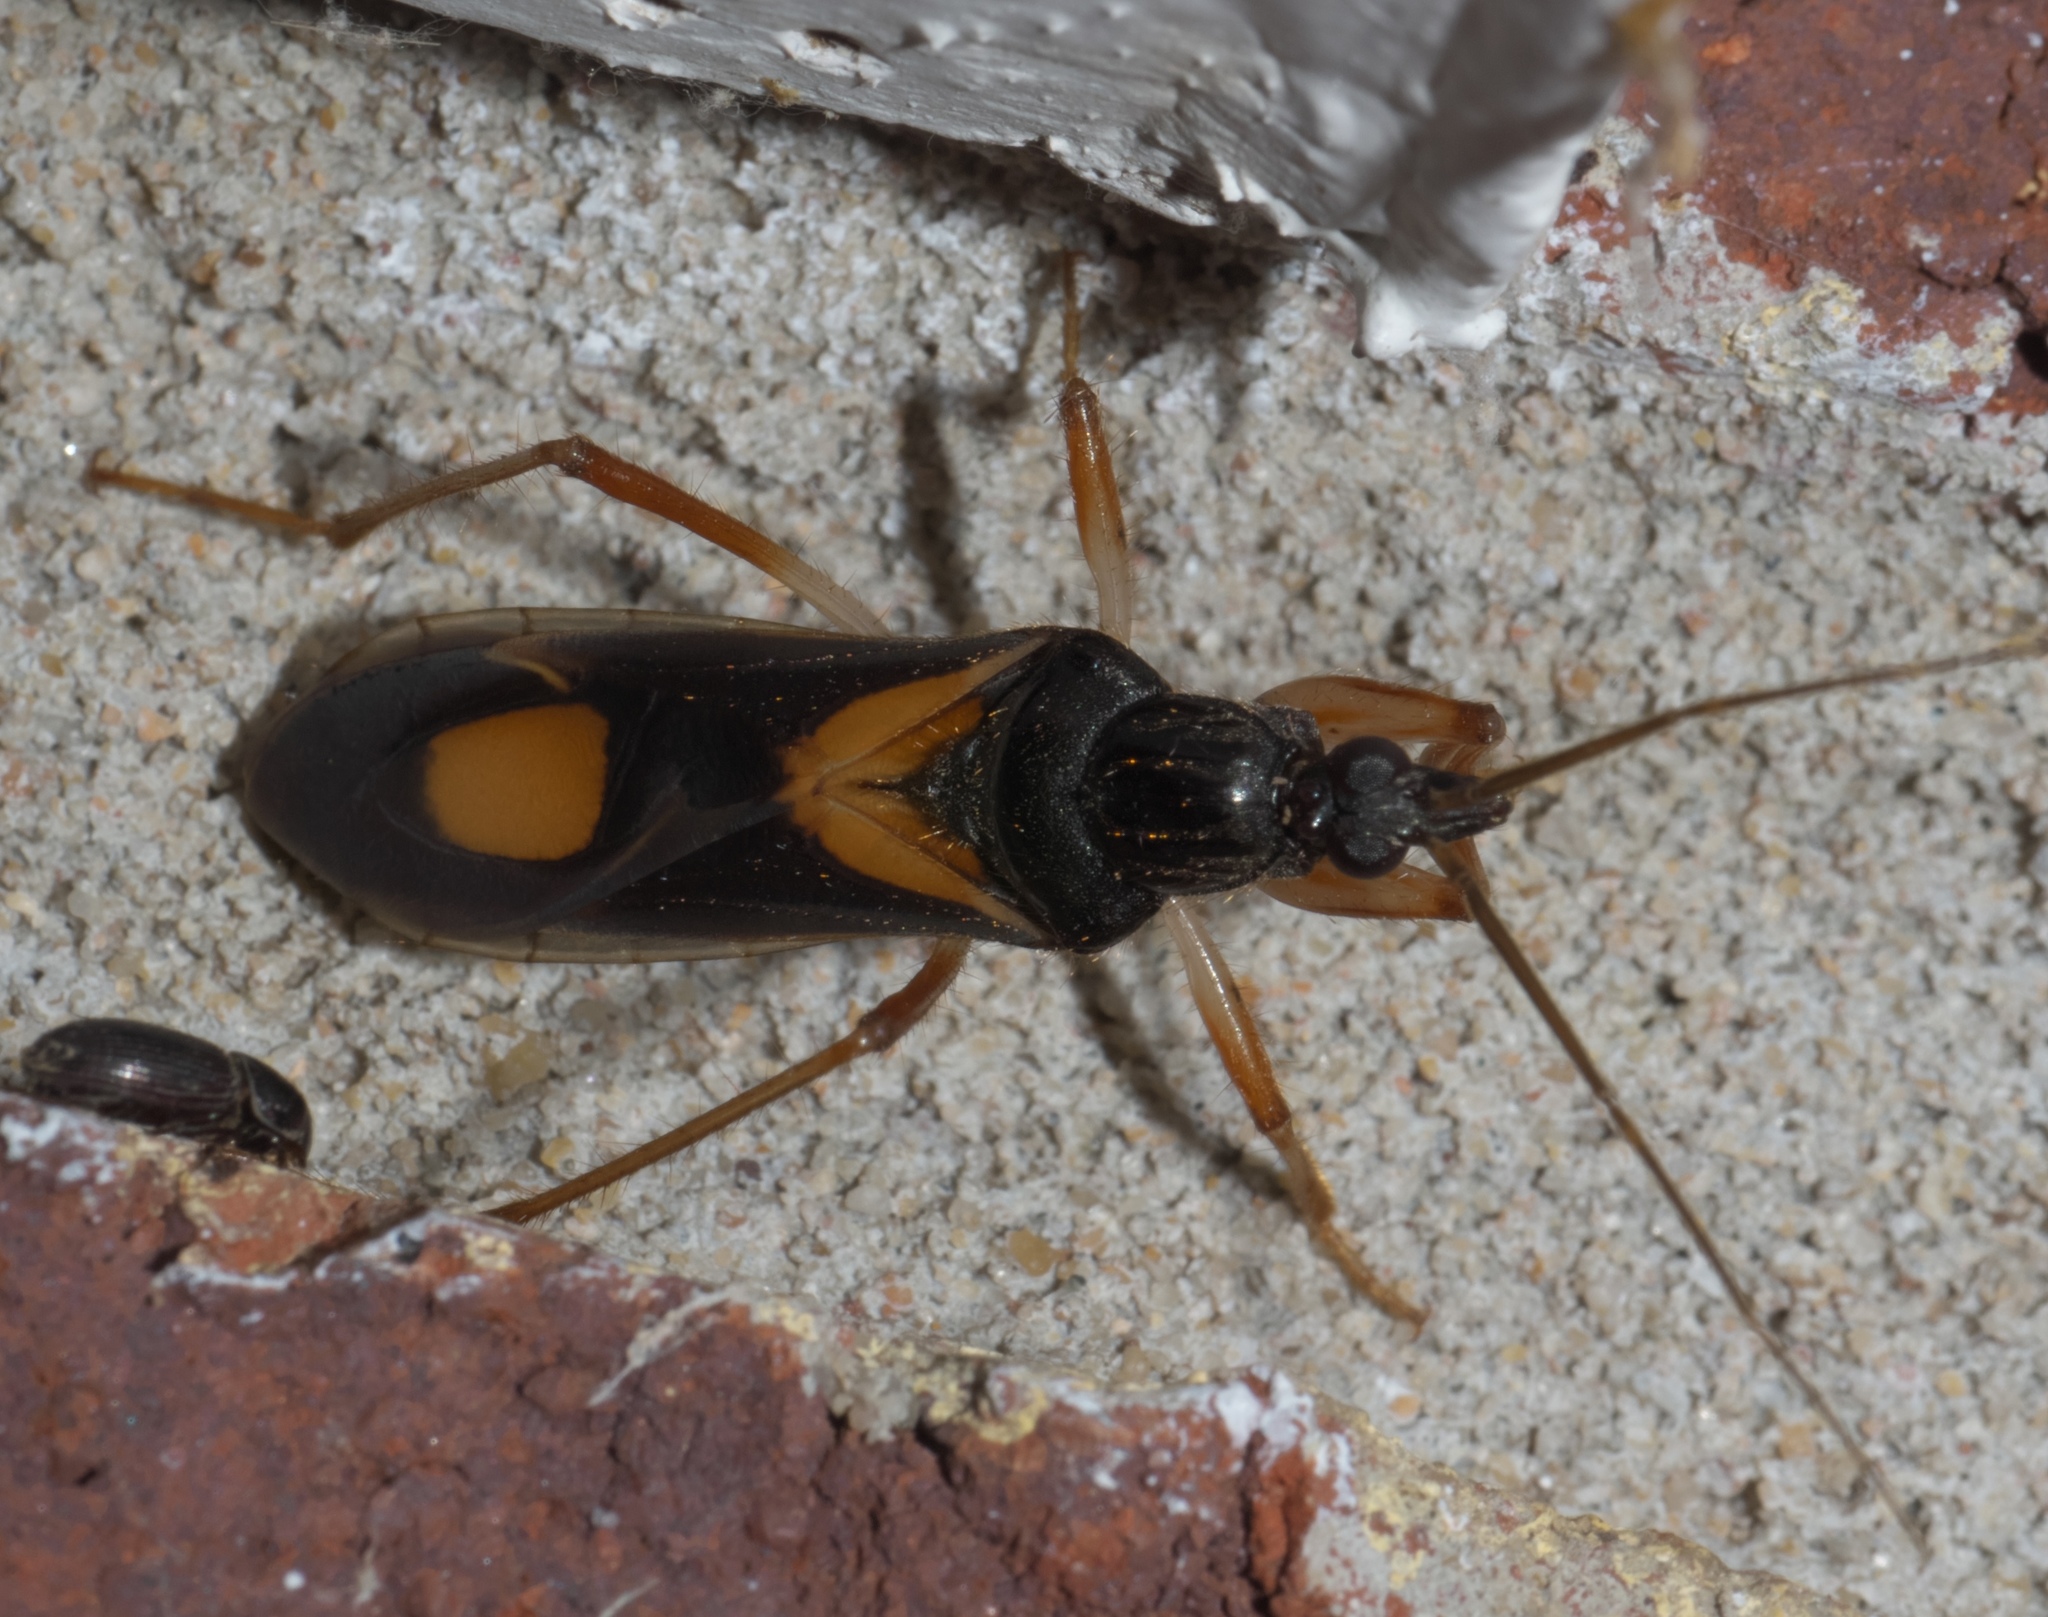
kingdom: Animalia
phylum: Arthropoda
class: Insecta
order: Hemiptera
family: Reduviidae
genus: Rasahus
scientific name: Rasahus hamatus
